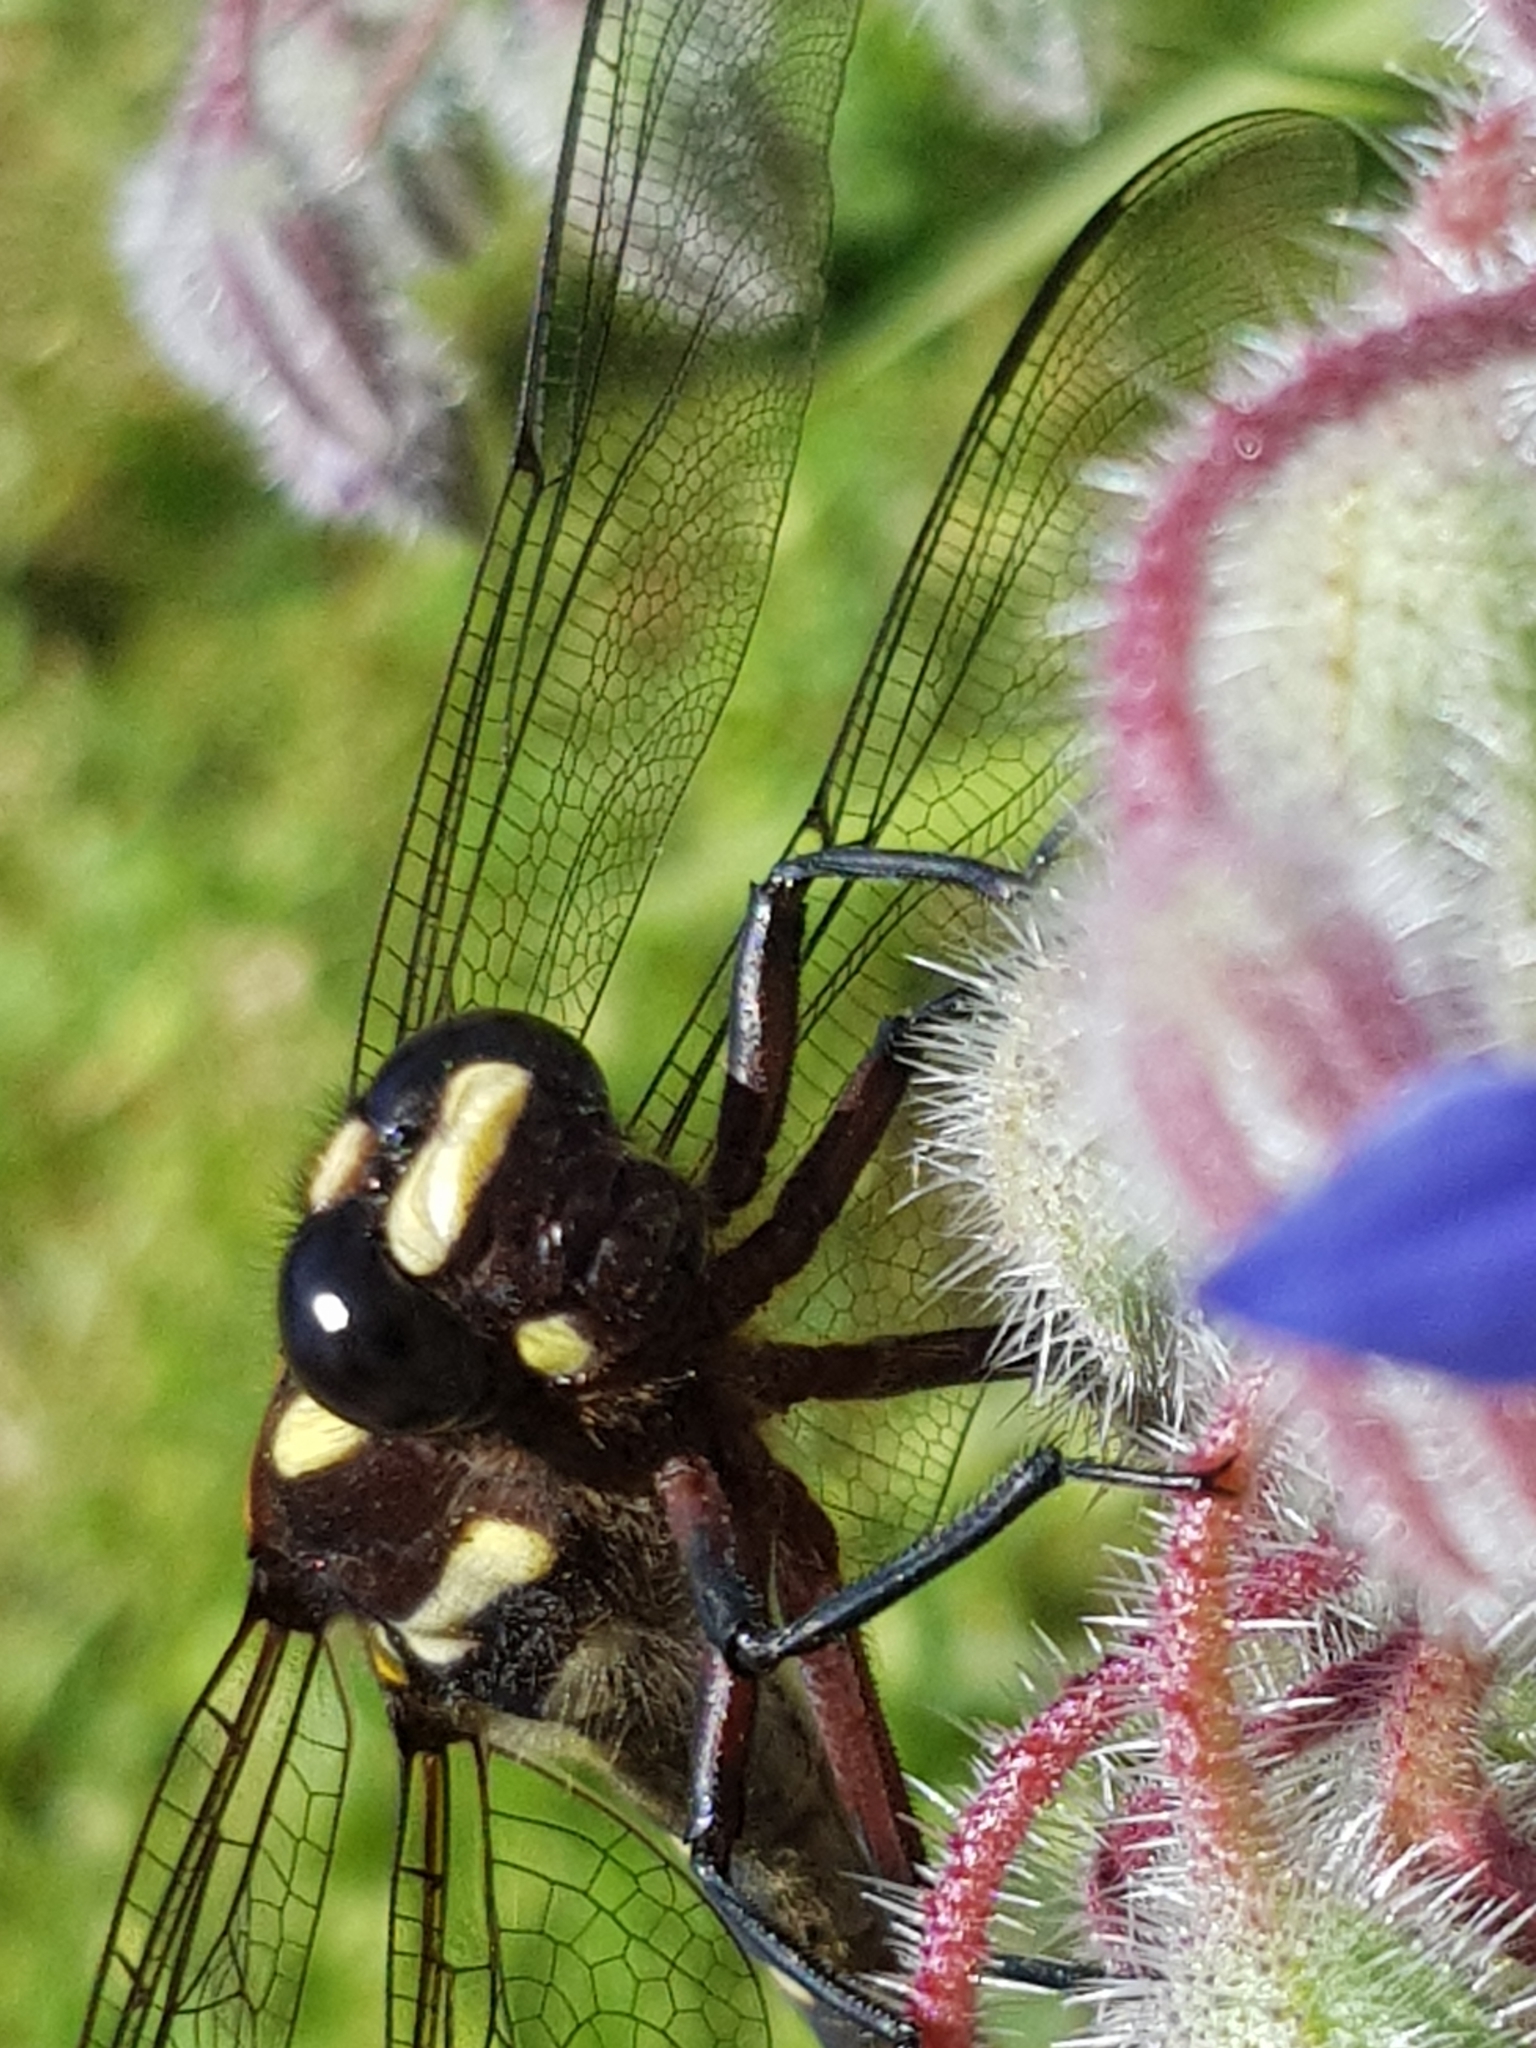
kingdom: Animalia
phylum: Arthropoda
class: Insecta
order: Odonata
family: Petaluridae
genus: Uropetala
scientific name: Uropetala carovei
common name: Bush giant dragonfly
